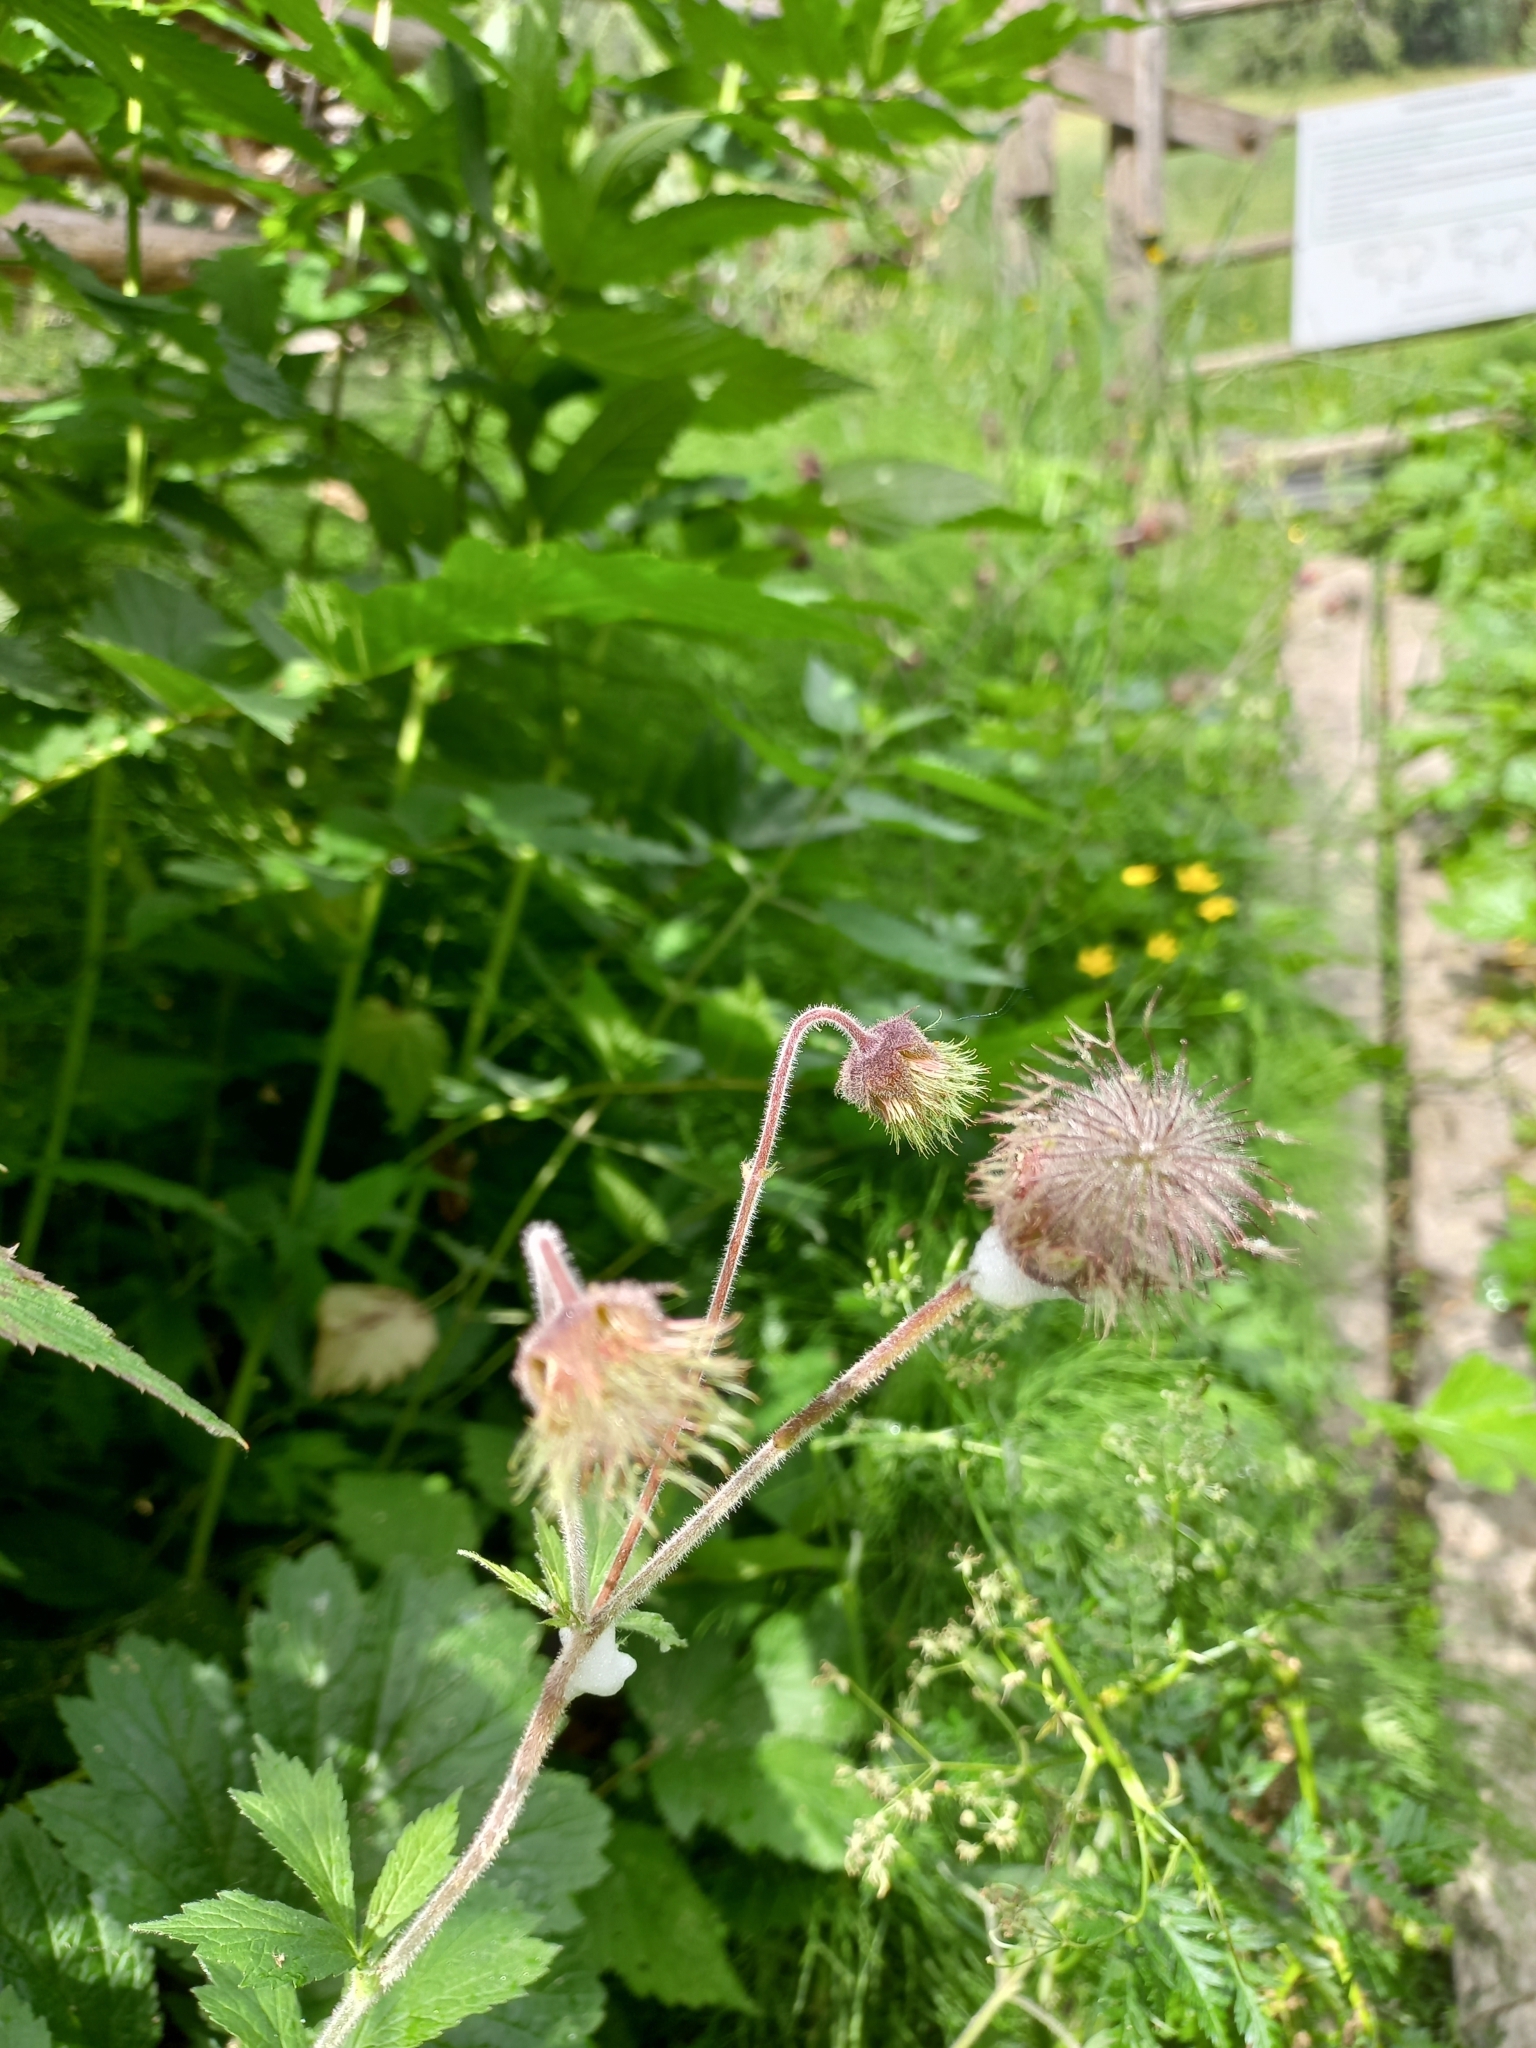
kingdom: Plantae
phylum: Tracheophyta
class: Magnoliopsida
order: Rosales
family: Rosaceae
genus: Geum
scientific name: Geum rivale
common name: Water avens
